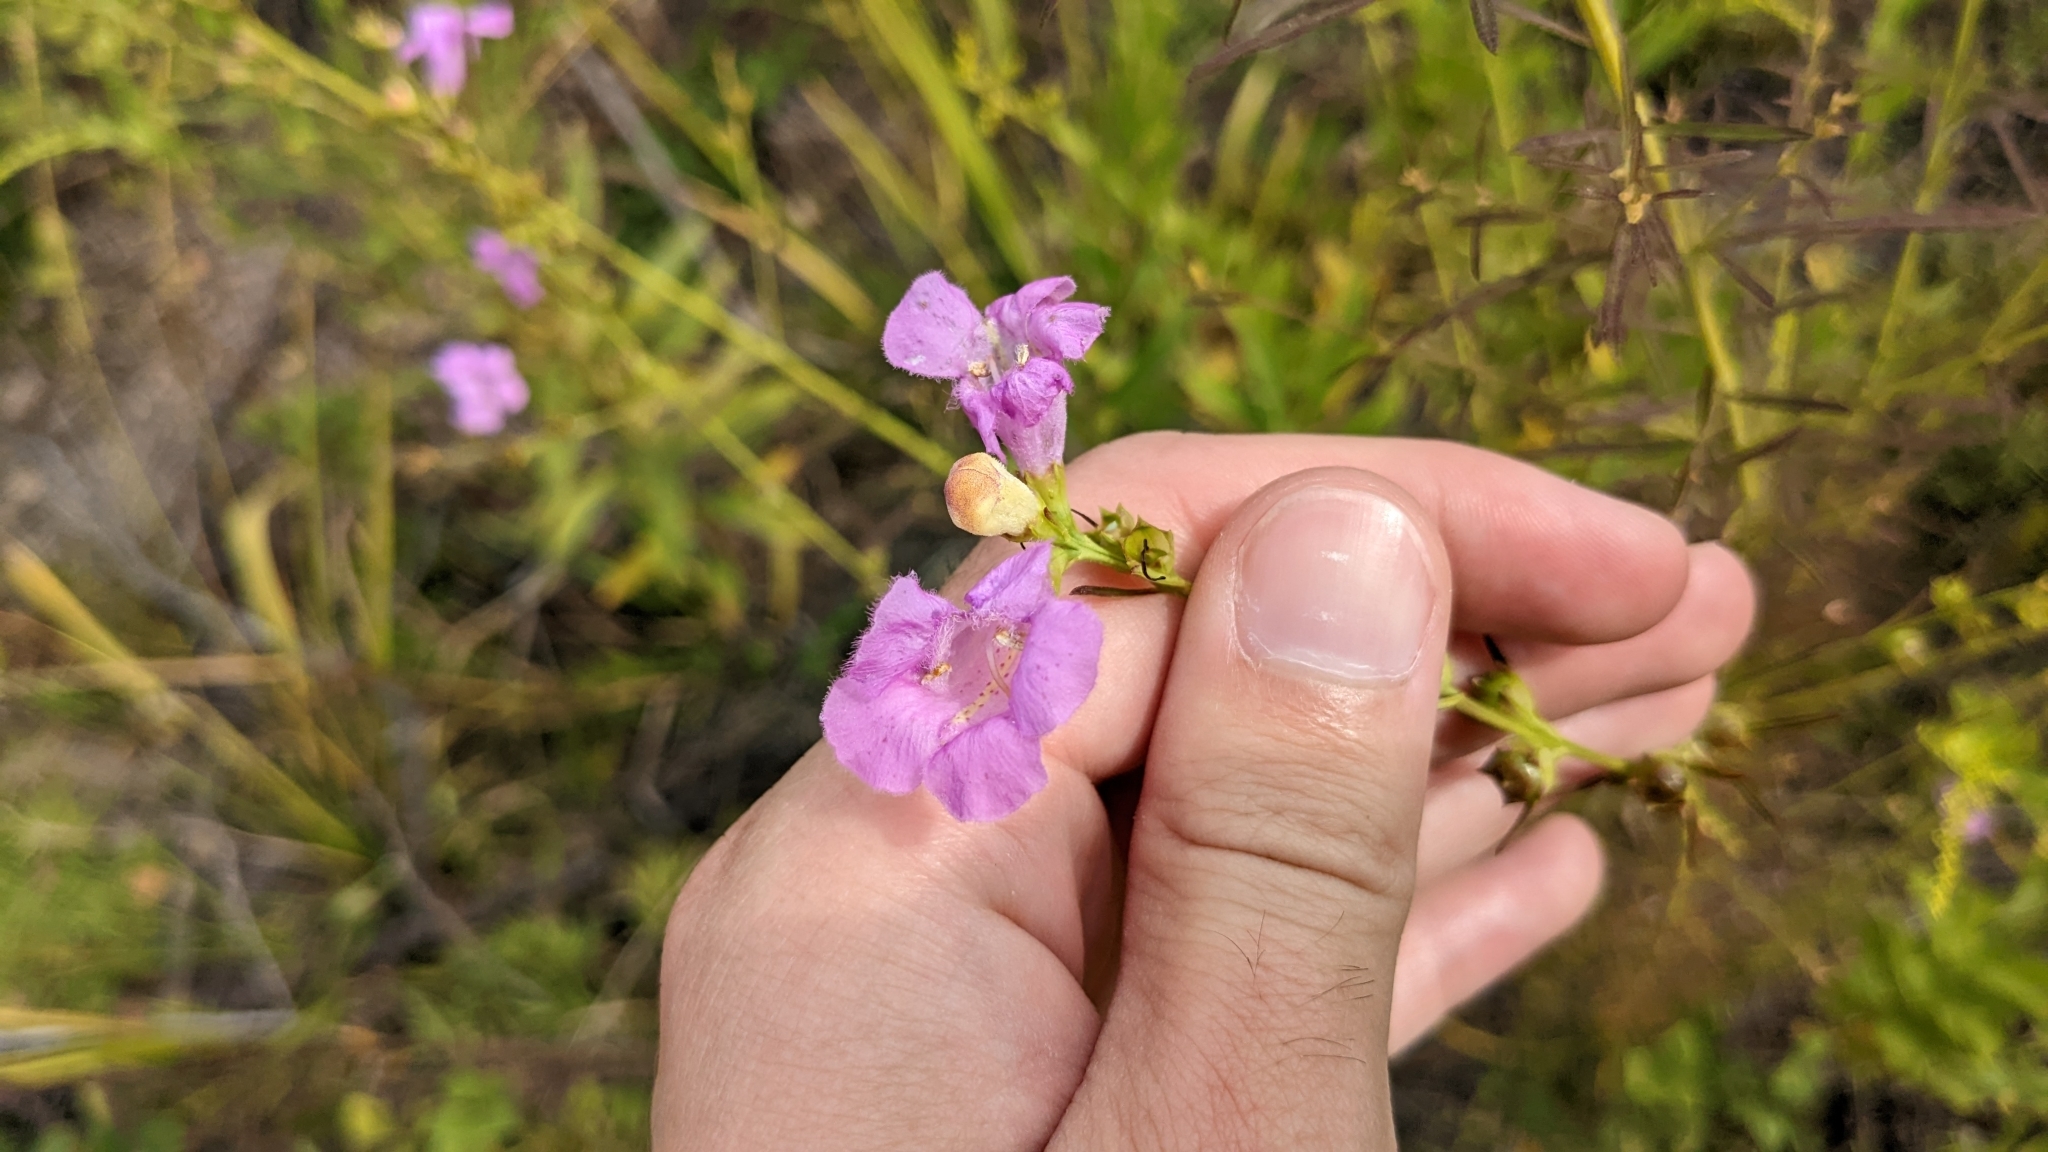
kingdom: Plantae
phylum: Tracheophyta
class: Magnoliopsida
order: Lamiales
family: Orobanchaceae
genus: Agalinis
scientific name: Agalinis fasciculata
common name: Beach false foxglove
